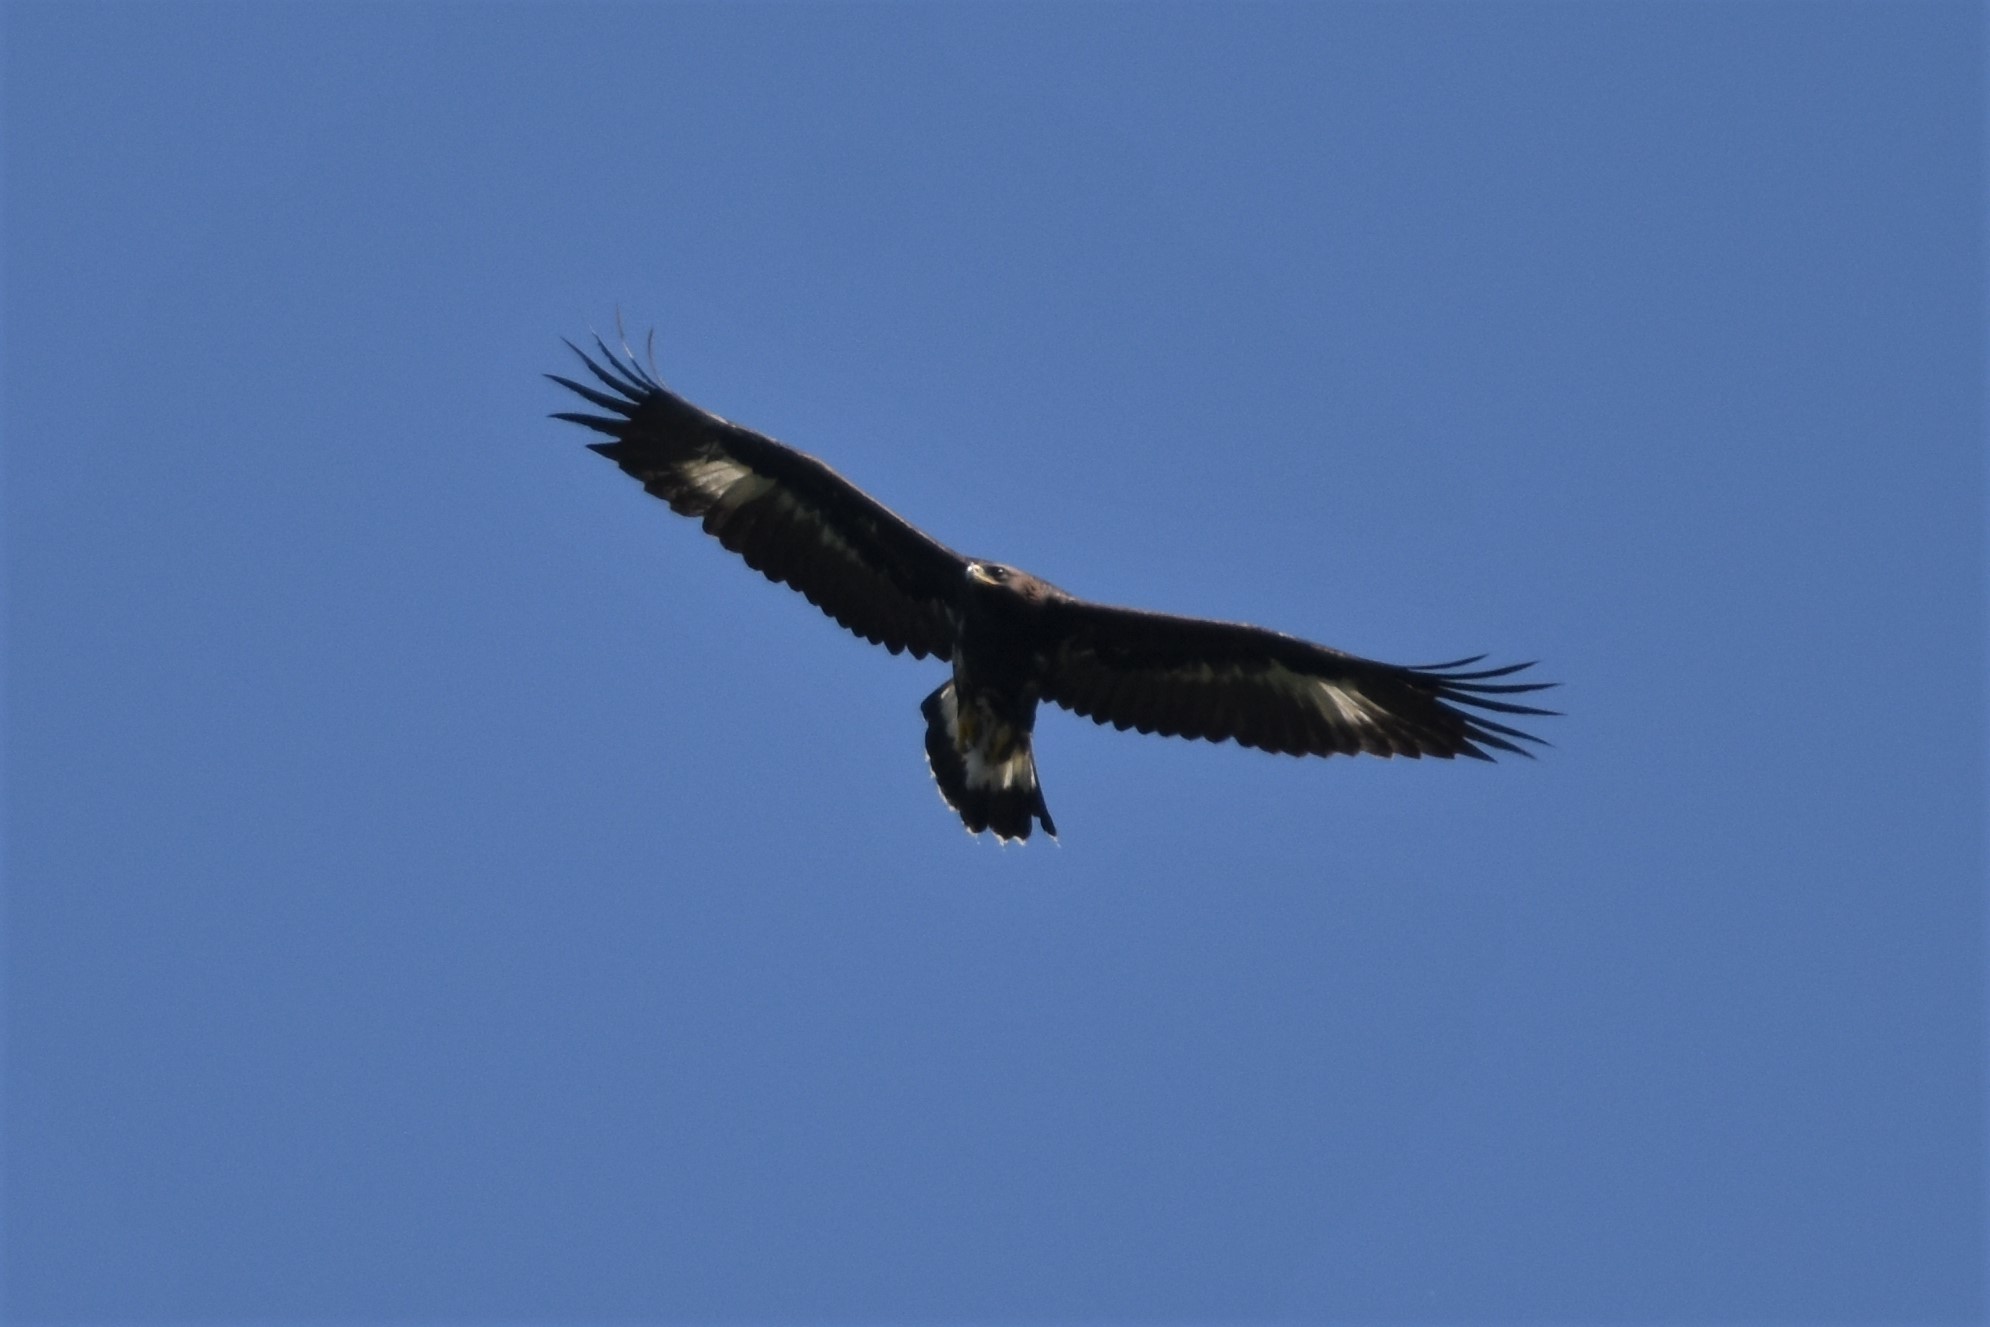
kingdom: Animalia
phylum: Chordata
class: Aves
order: Accipitriformes
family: Accipitridae
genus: Aquila
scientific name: Aquila chrysaetos
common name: Golden eagle
